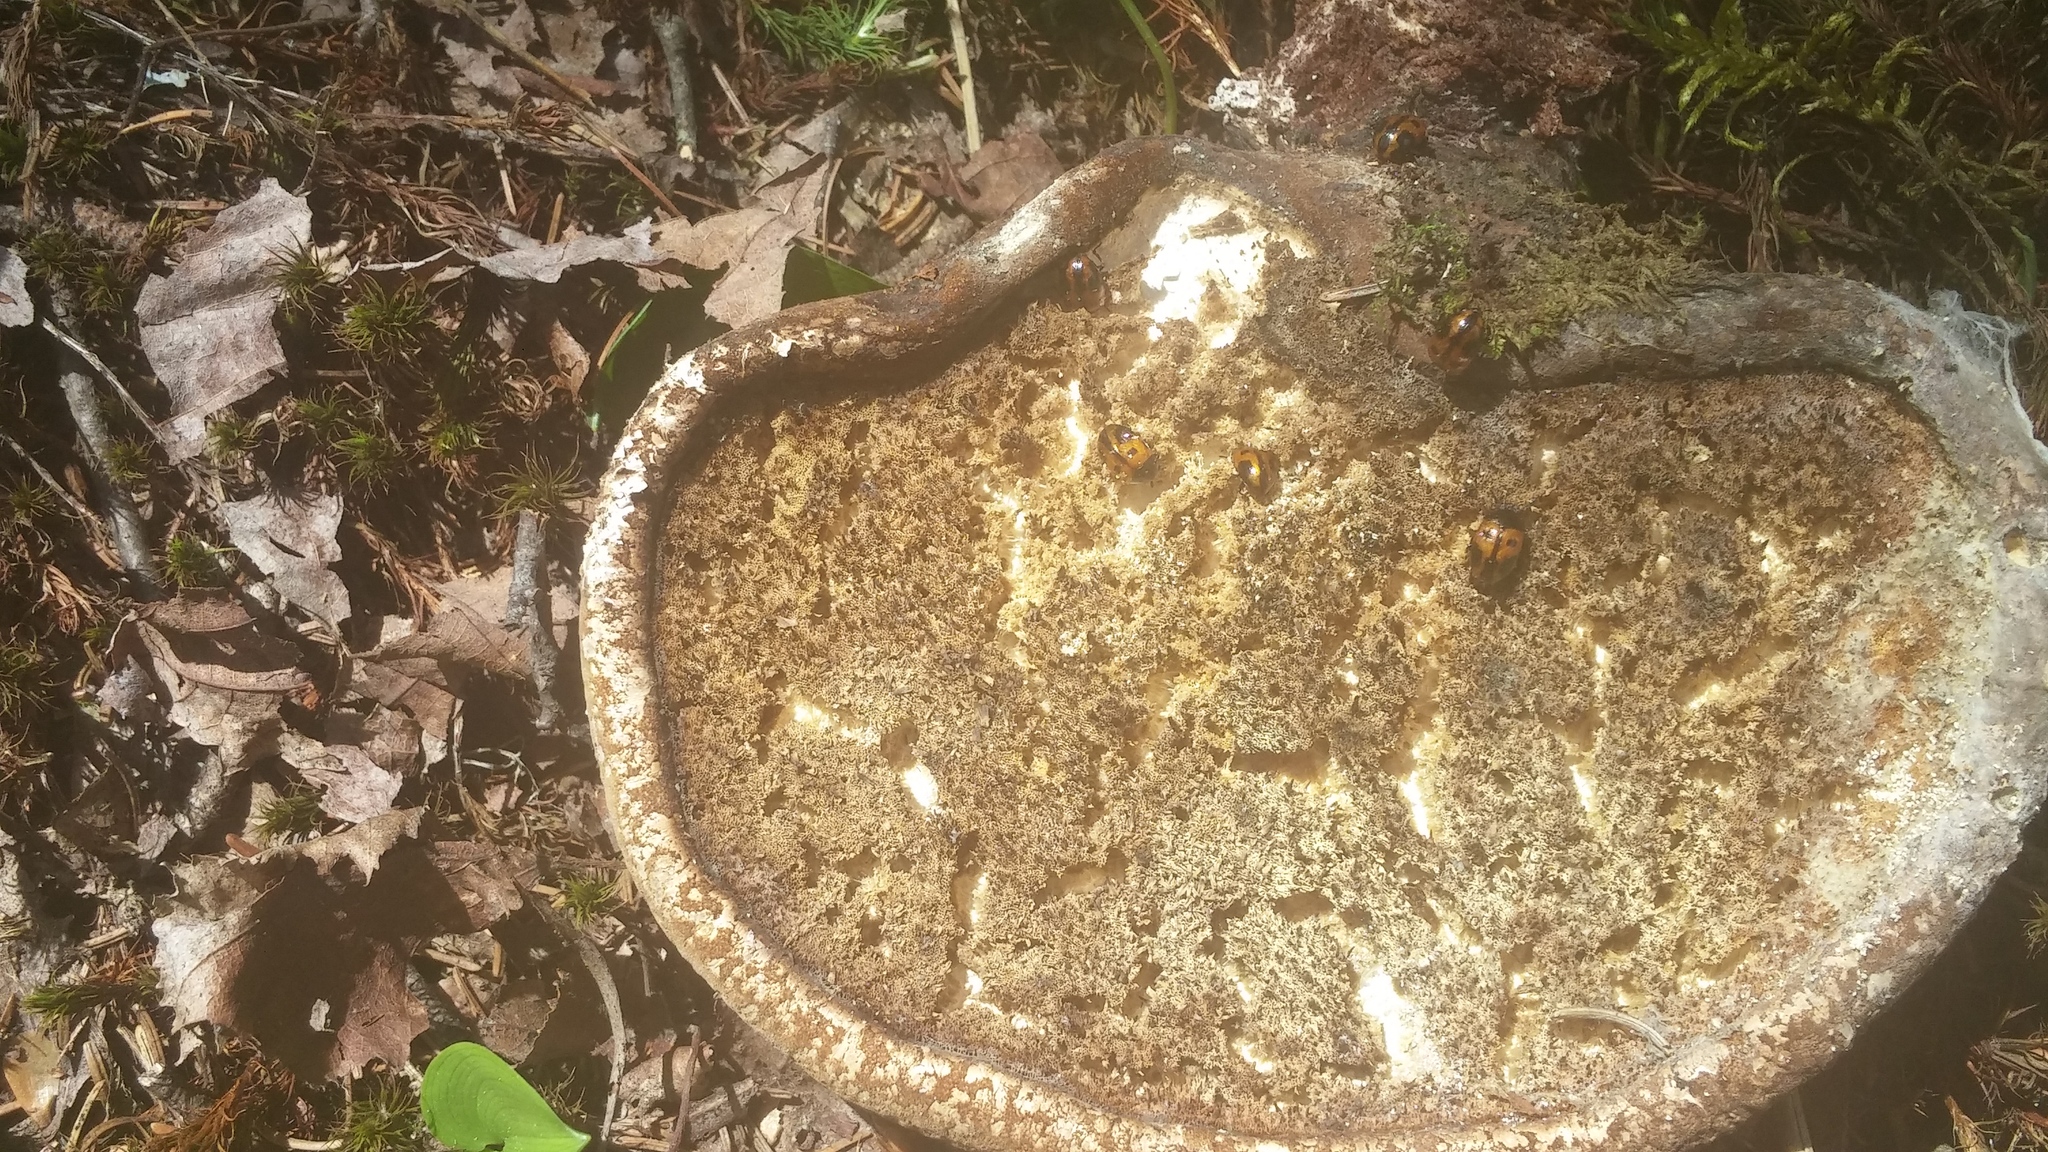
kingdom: Animalia
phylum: Arthropoda
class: Insecta
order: Coleoptera
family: Tenebrionidae
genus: Diaperis
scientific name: Diaperis maculata
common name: Darkling beetle
